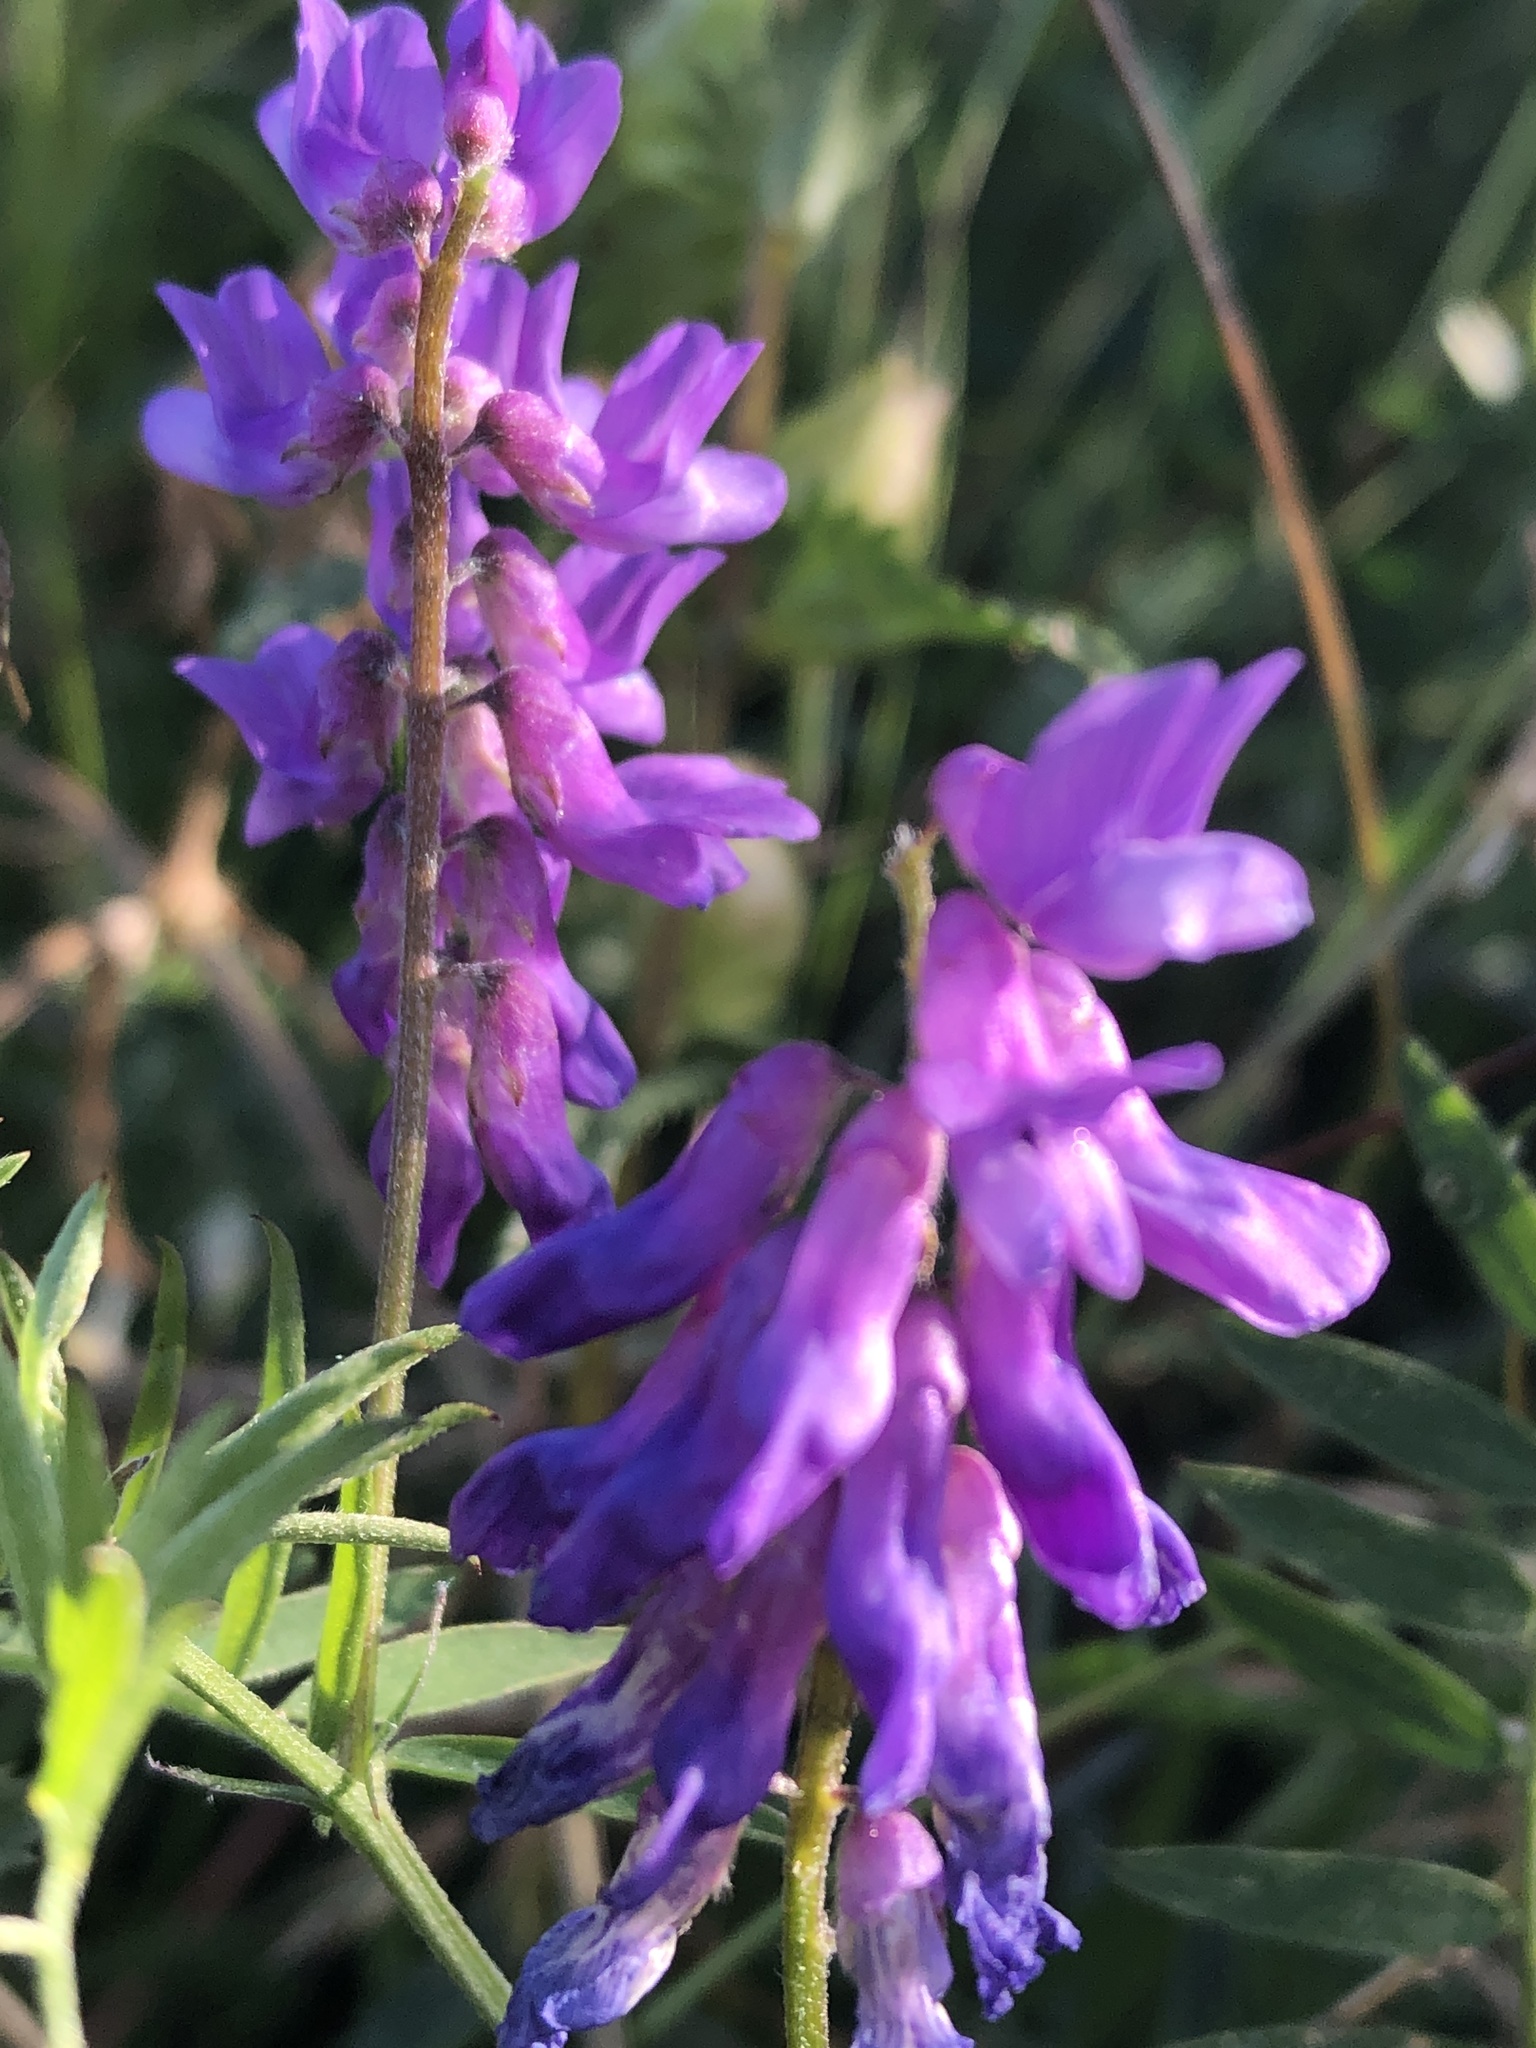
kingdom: Plantae
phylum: Tracheophyta
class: Magnoliopsida
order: Fabales
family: Fabaceae
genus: Vicia
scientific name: Vicia cracca
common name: Bird vetch
